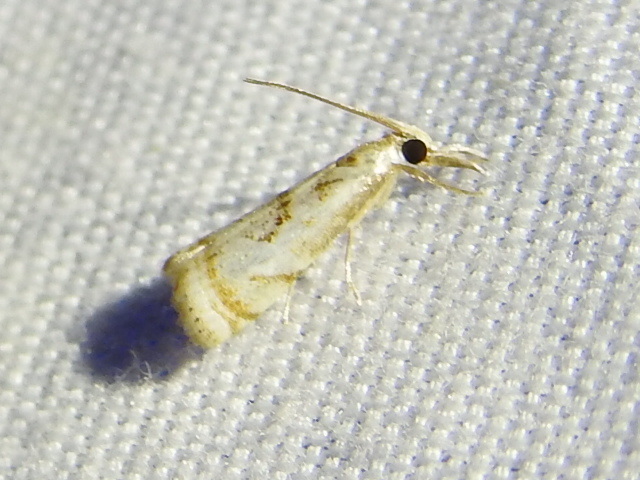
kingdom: Animalia
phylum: Arthropoda
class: Insecta
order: Lepidoptera
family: Crambidae
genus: Microcrambus
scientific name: Microcrambus elegans
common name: Elegant grass-veneer
